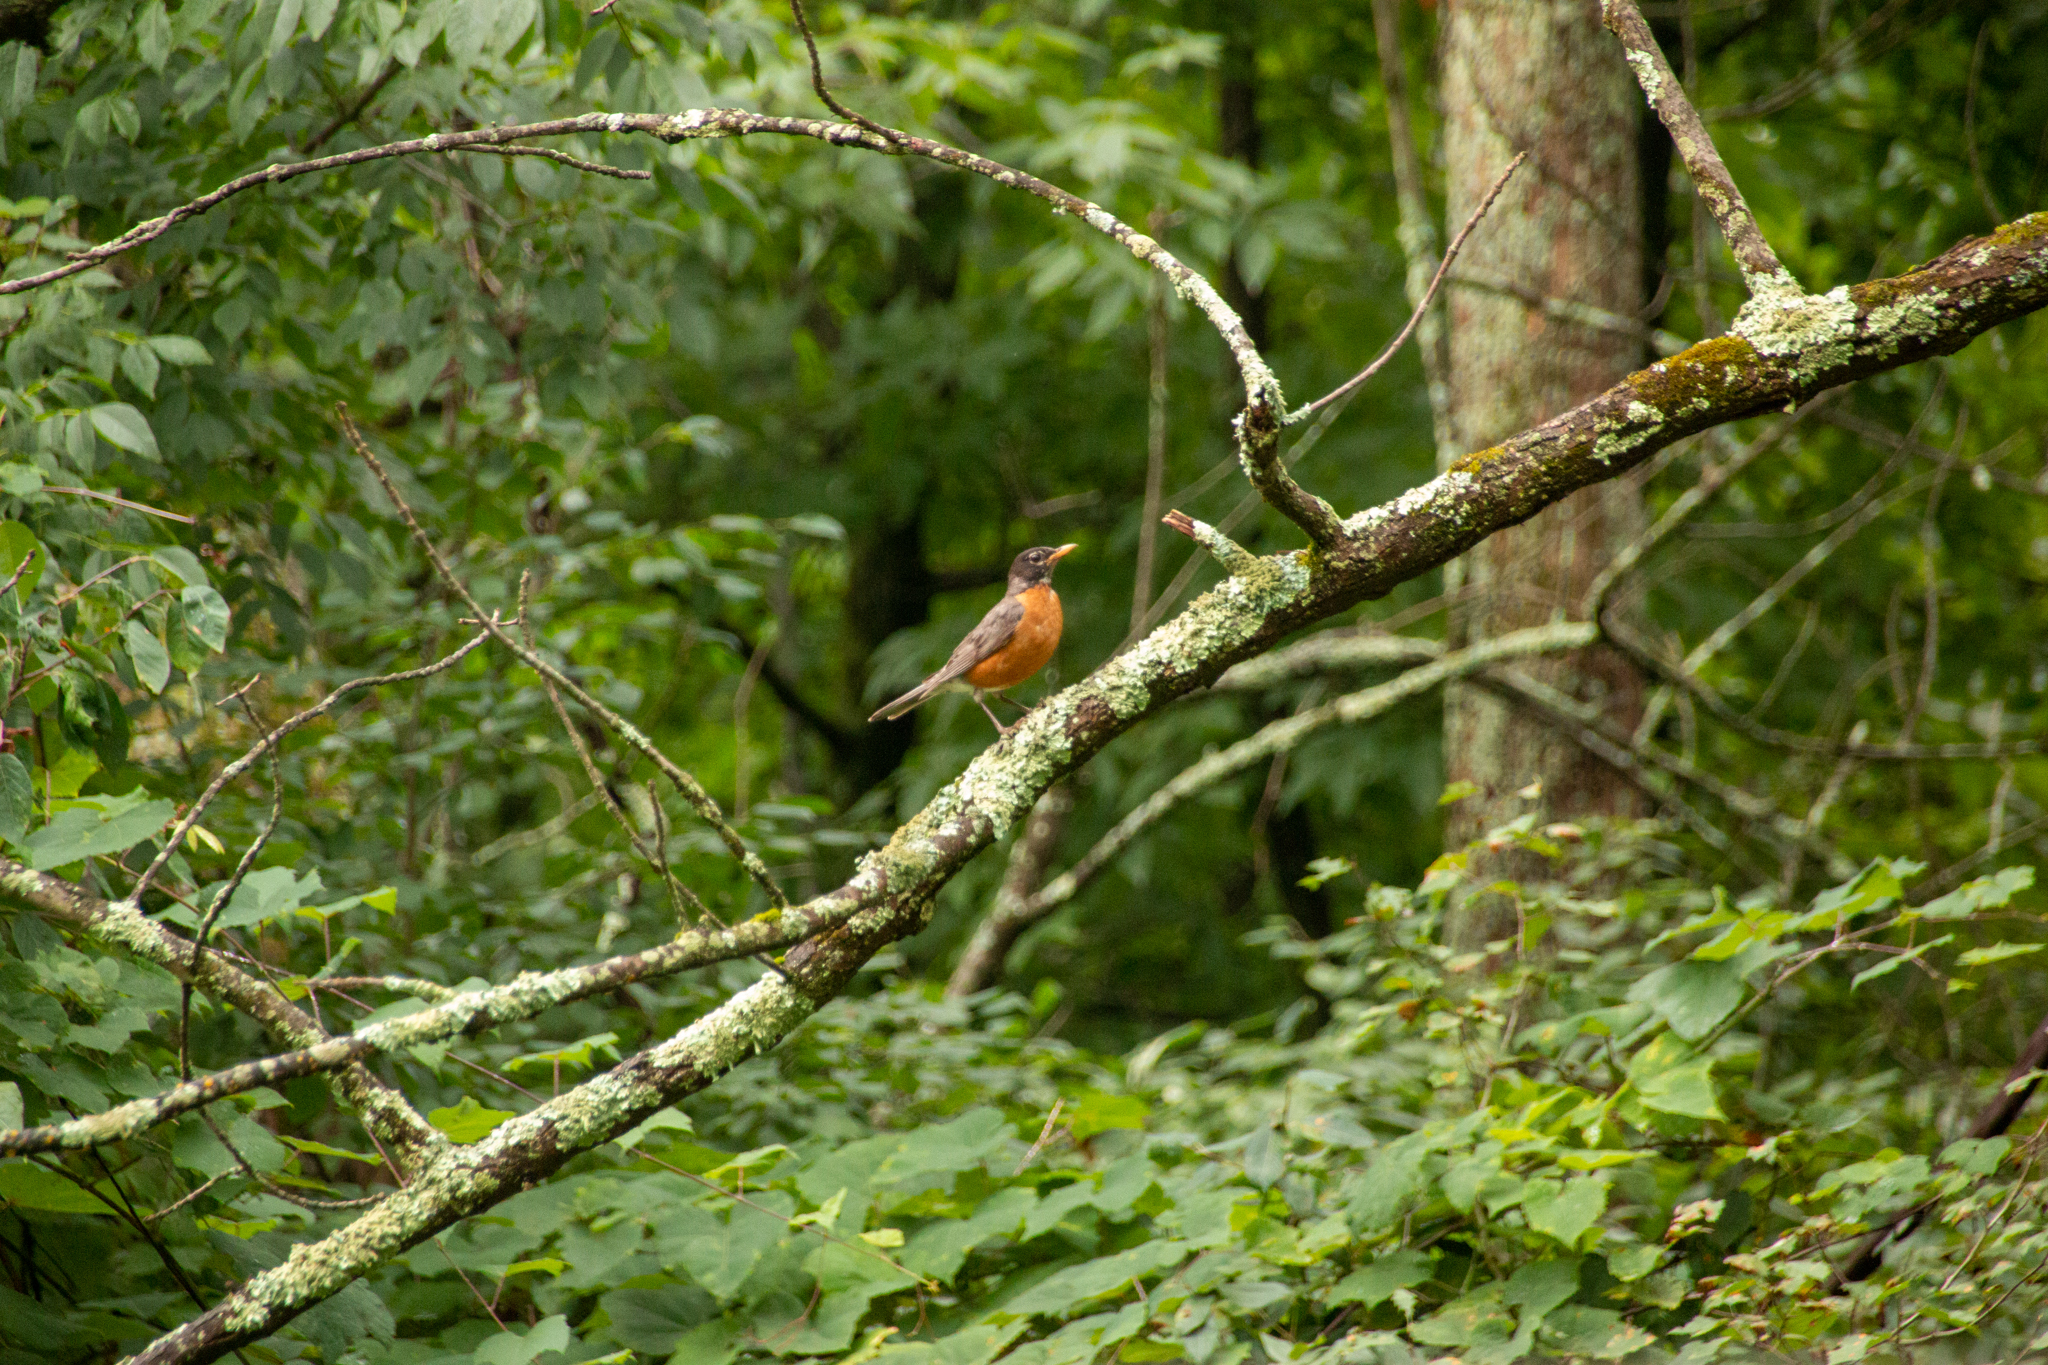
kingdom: Animalia
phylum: Chordata
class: Aves
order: Passeriformes
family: Turdidae
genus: Turdus
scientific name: Turdus migratorius
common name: American robin
